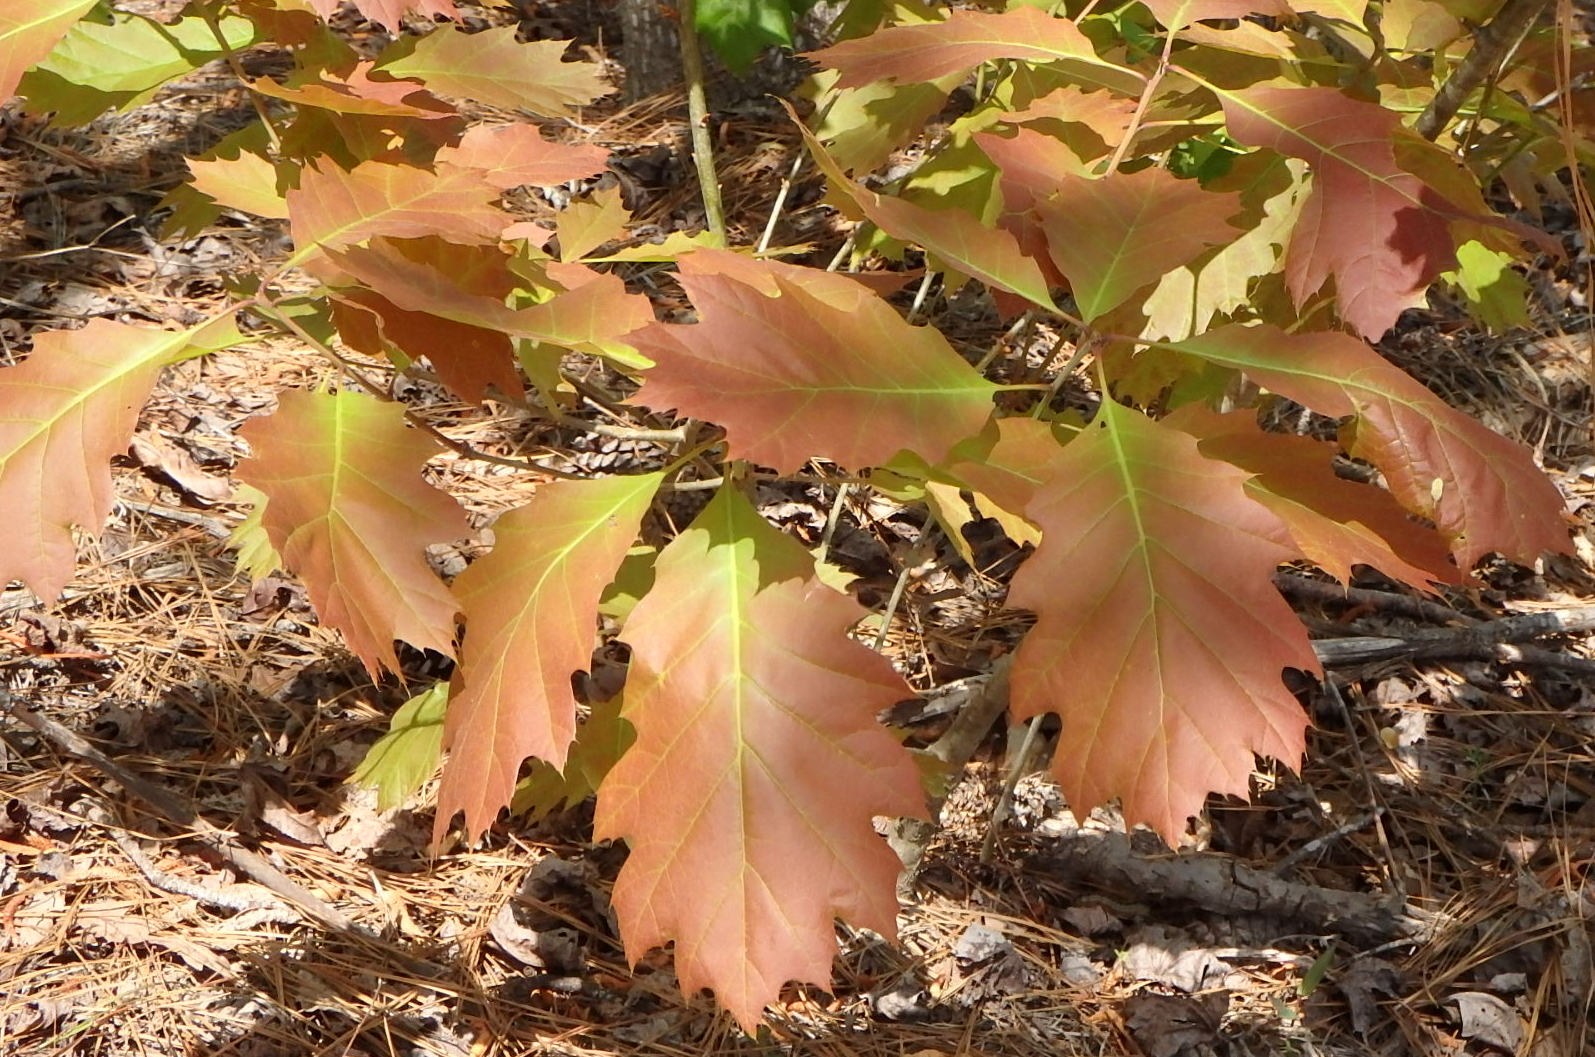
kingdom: Plantae
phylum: Tracheophyta
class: Magnoliopsida
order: Fagales
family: Fagaceae
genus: Quercus
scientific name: Quercus rubra
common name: Red oak
